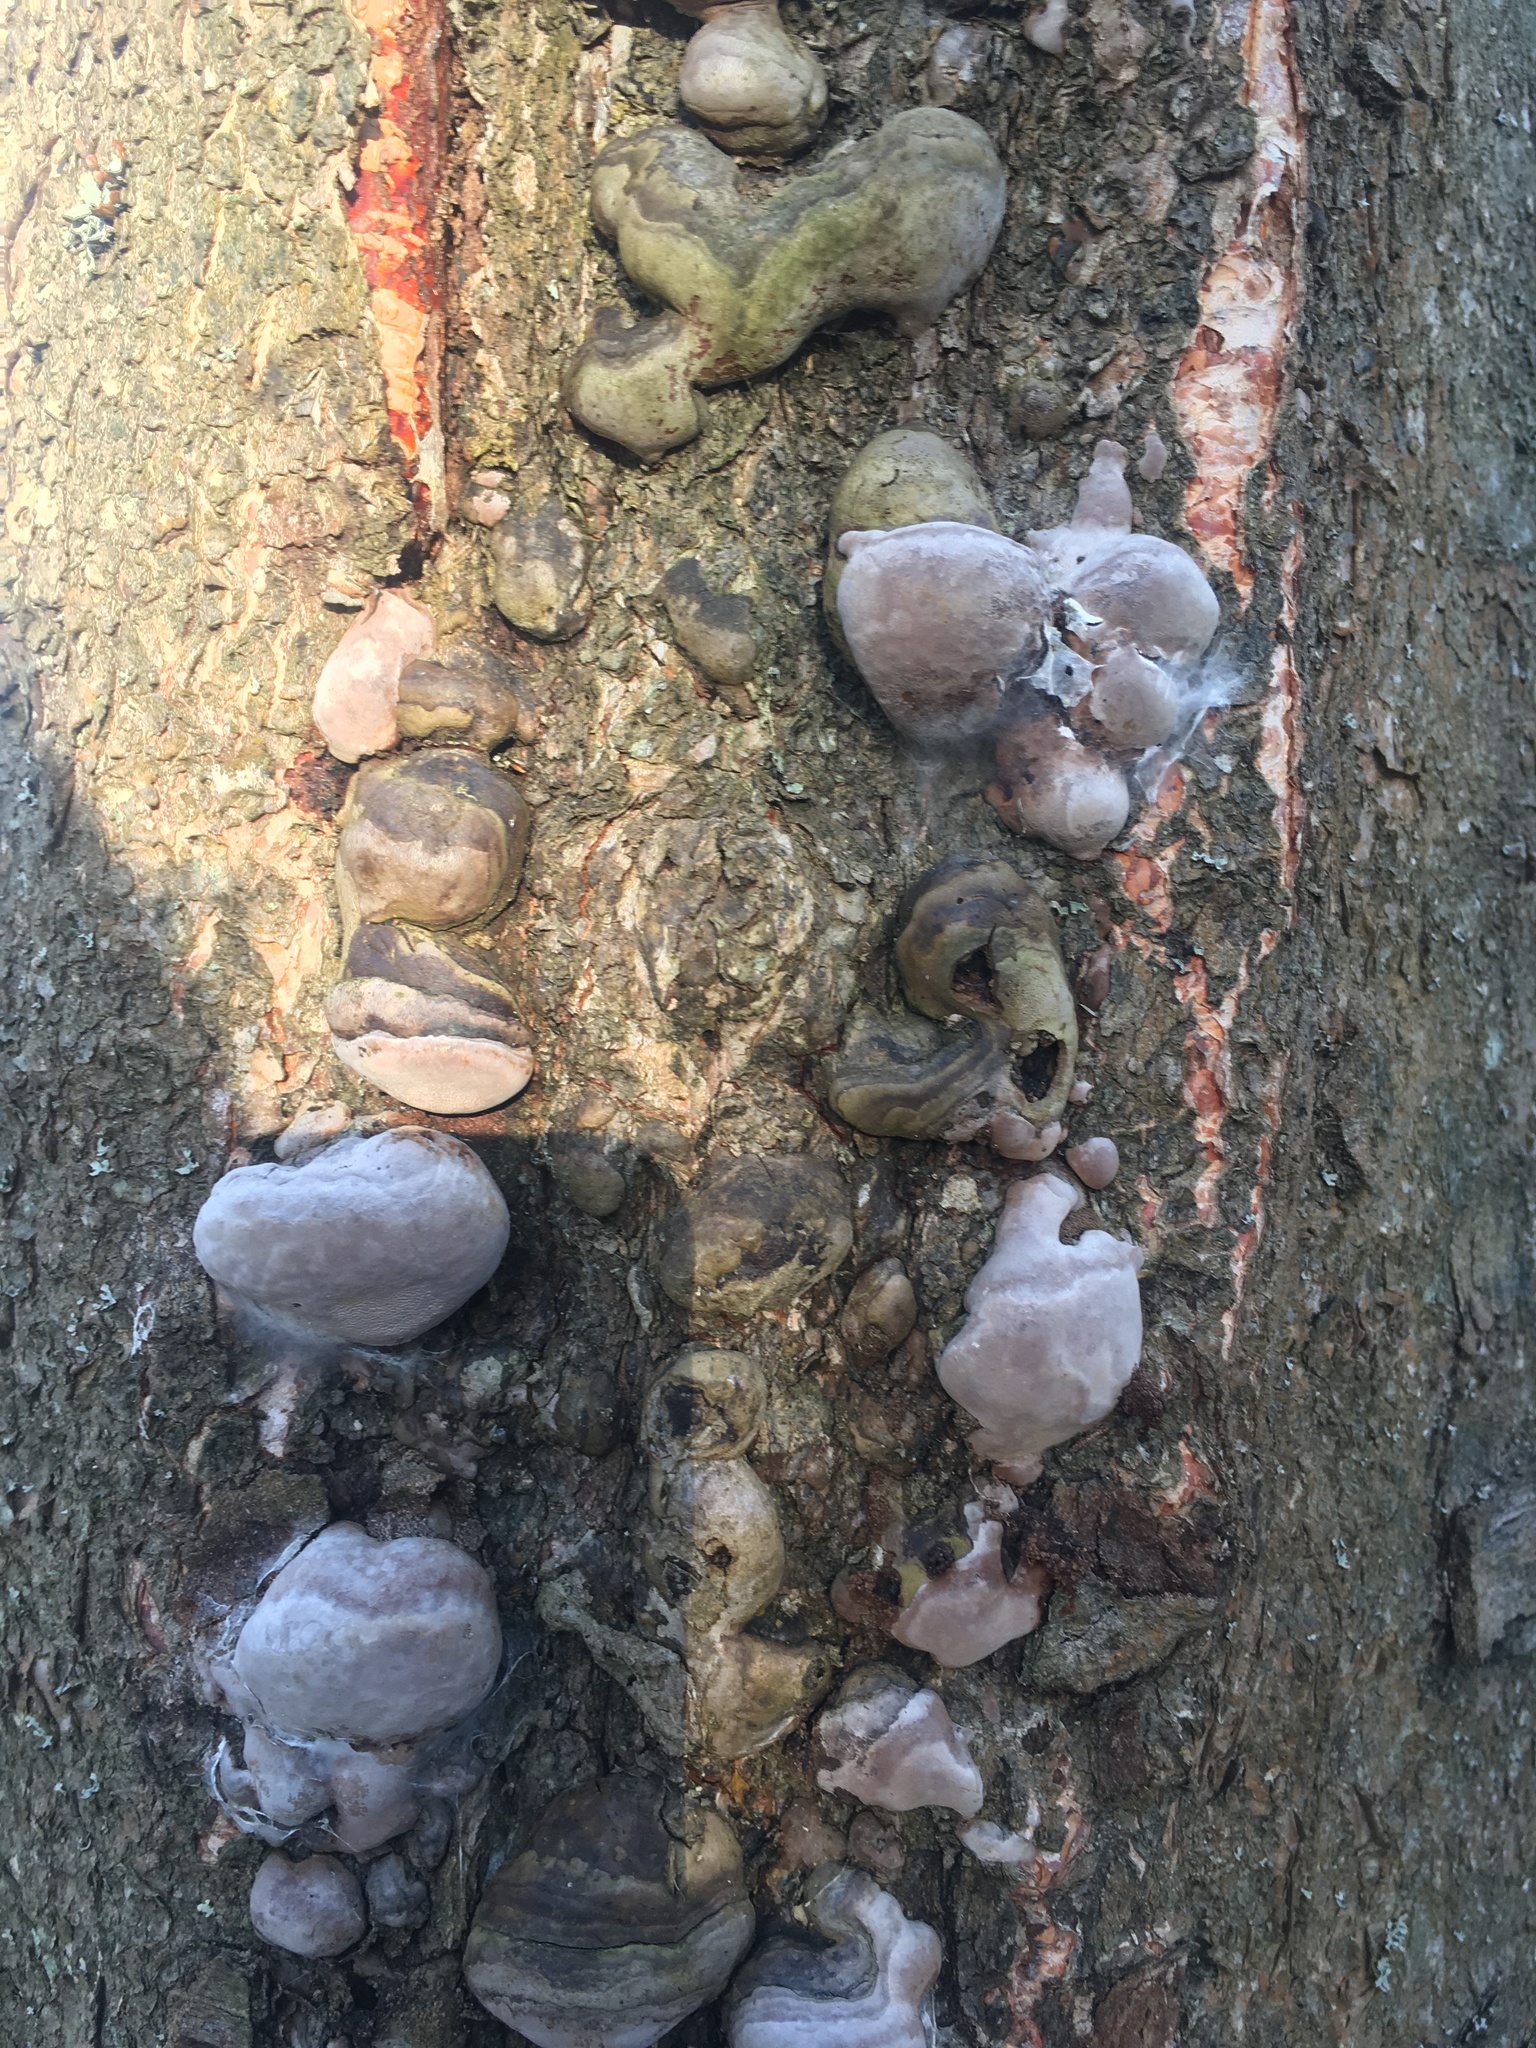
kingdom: Fungi
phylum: Basidiomycota
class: Agaricomycetes
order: Hymenochaetales
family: Hymenochaetaceae
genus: Phellinus
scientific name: Phellinus igniarius
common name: Willow bracket
